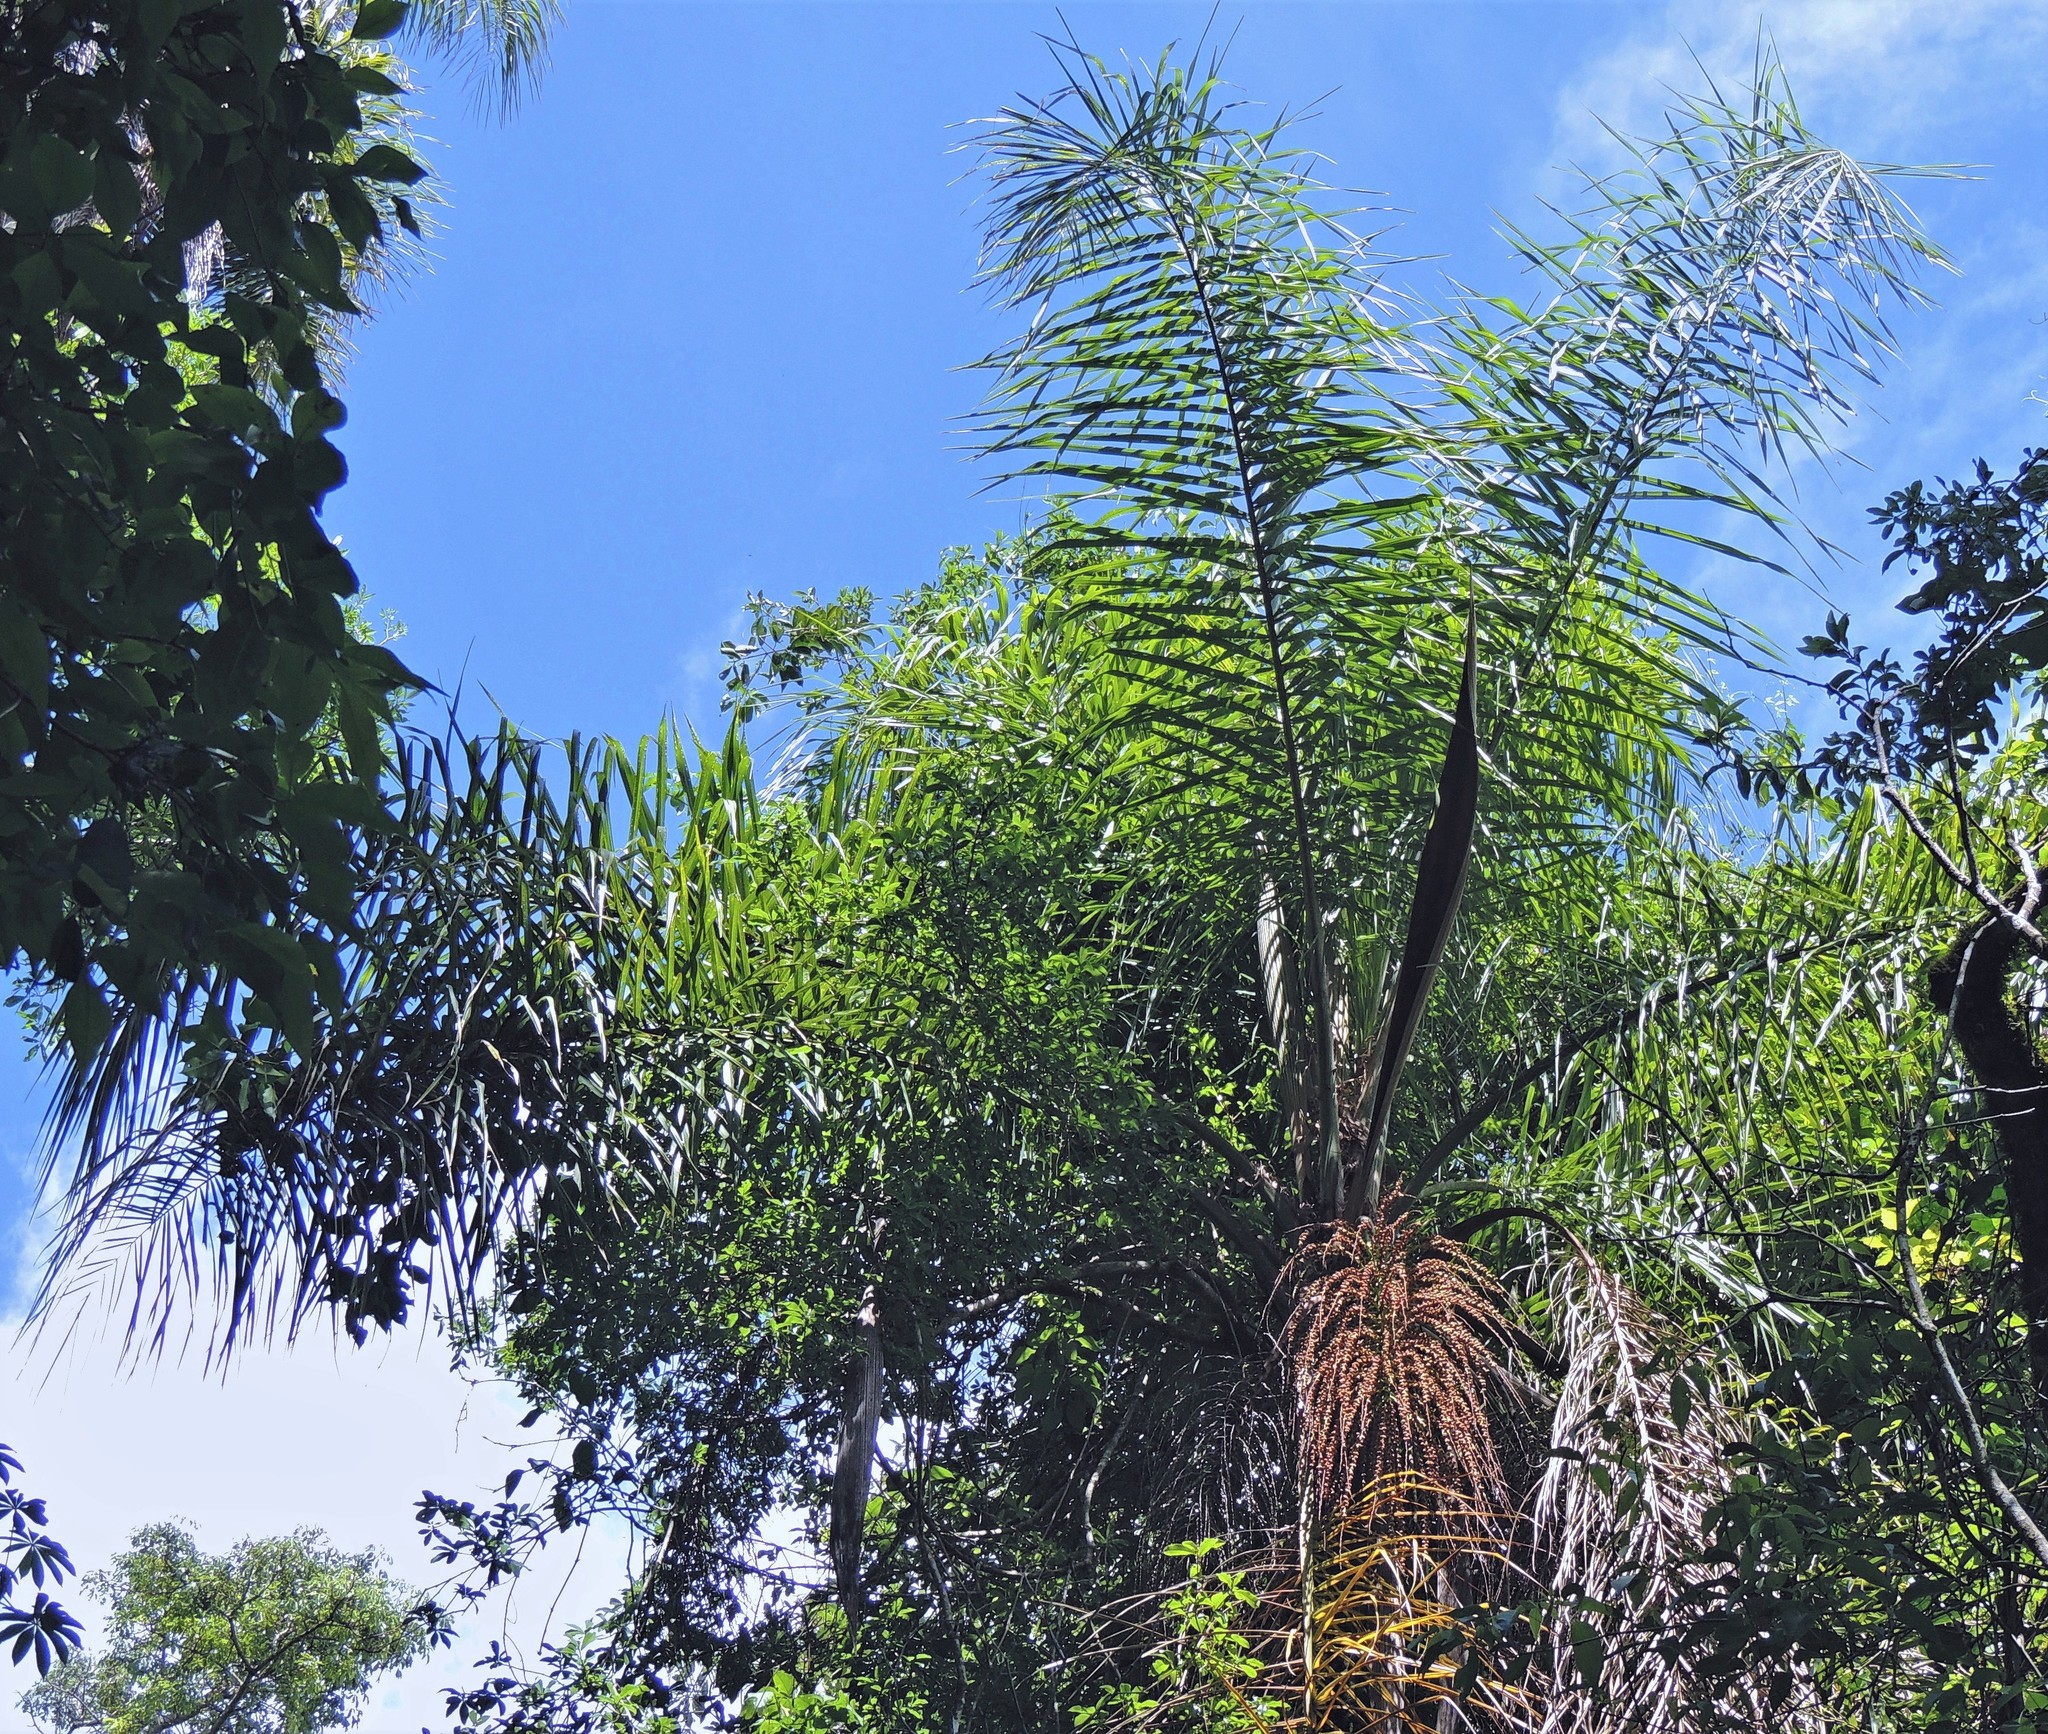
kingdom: Plantae
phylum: Tracheophyta
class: Liliopsida
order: Arecales
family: Arecaceae
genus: Syagrus
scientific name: Syagrus romanzoffiana
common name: Queen palm
